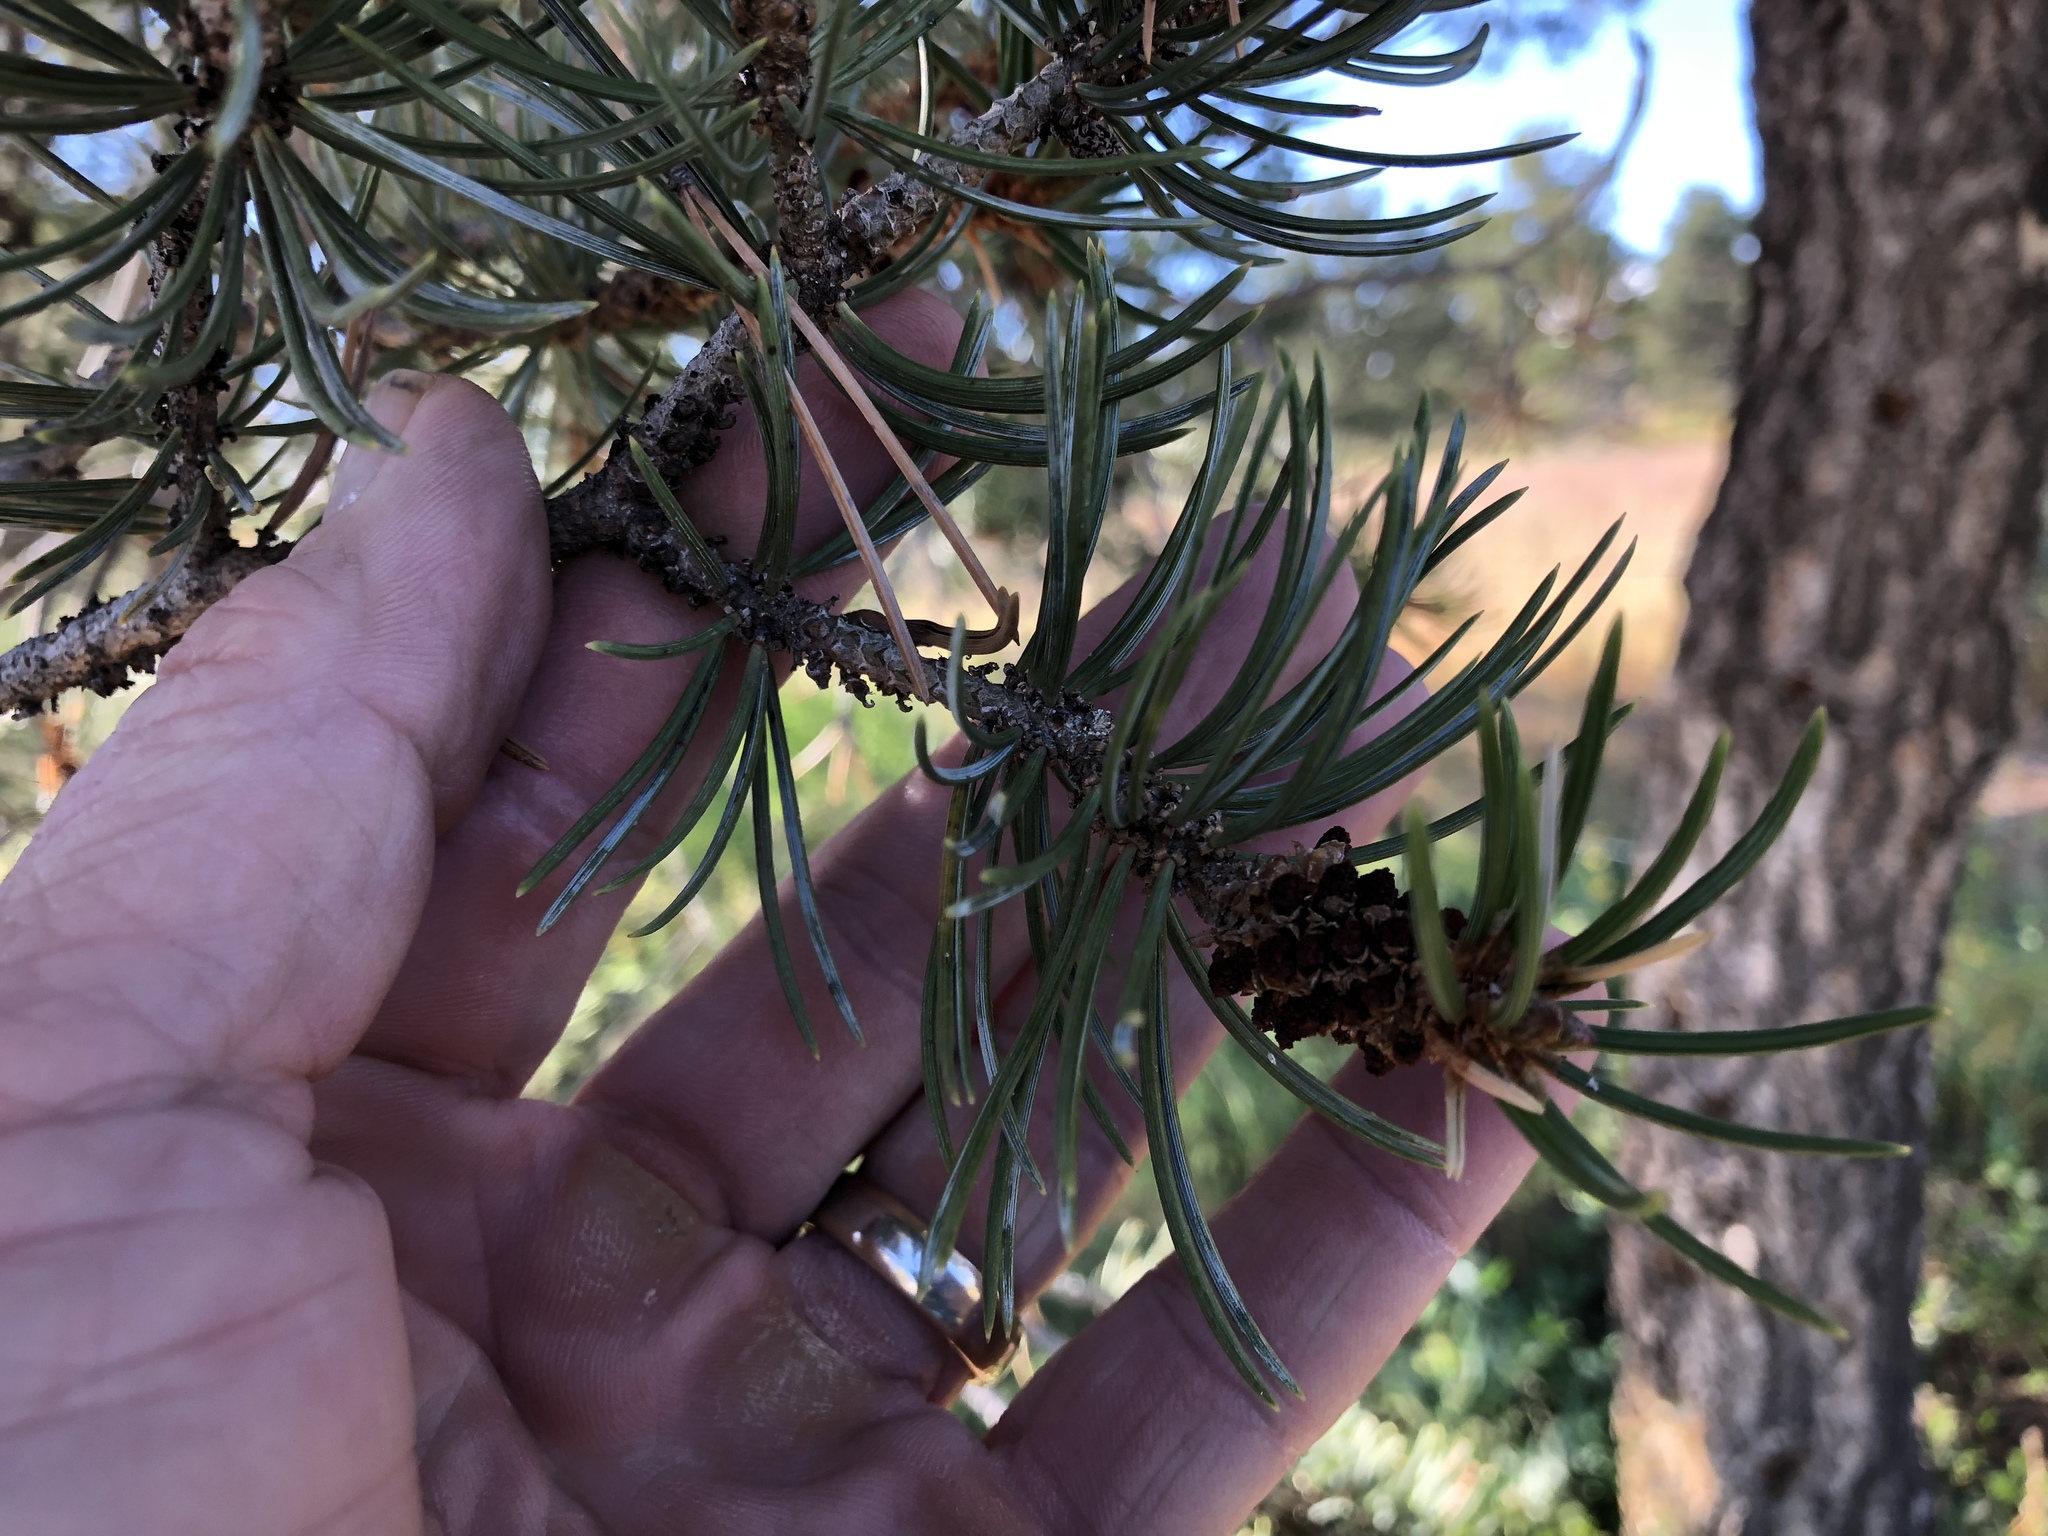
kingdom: Plantae
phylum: Tracheophyta
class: Pinopsida
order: Pinales
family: Pinaceae
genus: Pinus
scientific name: Pinus edulis
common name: Colorado pinyon
